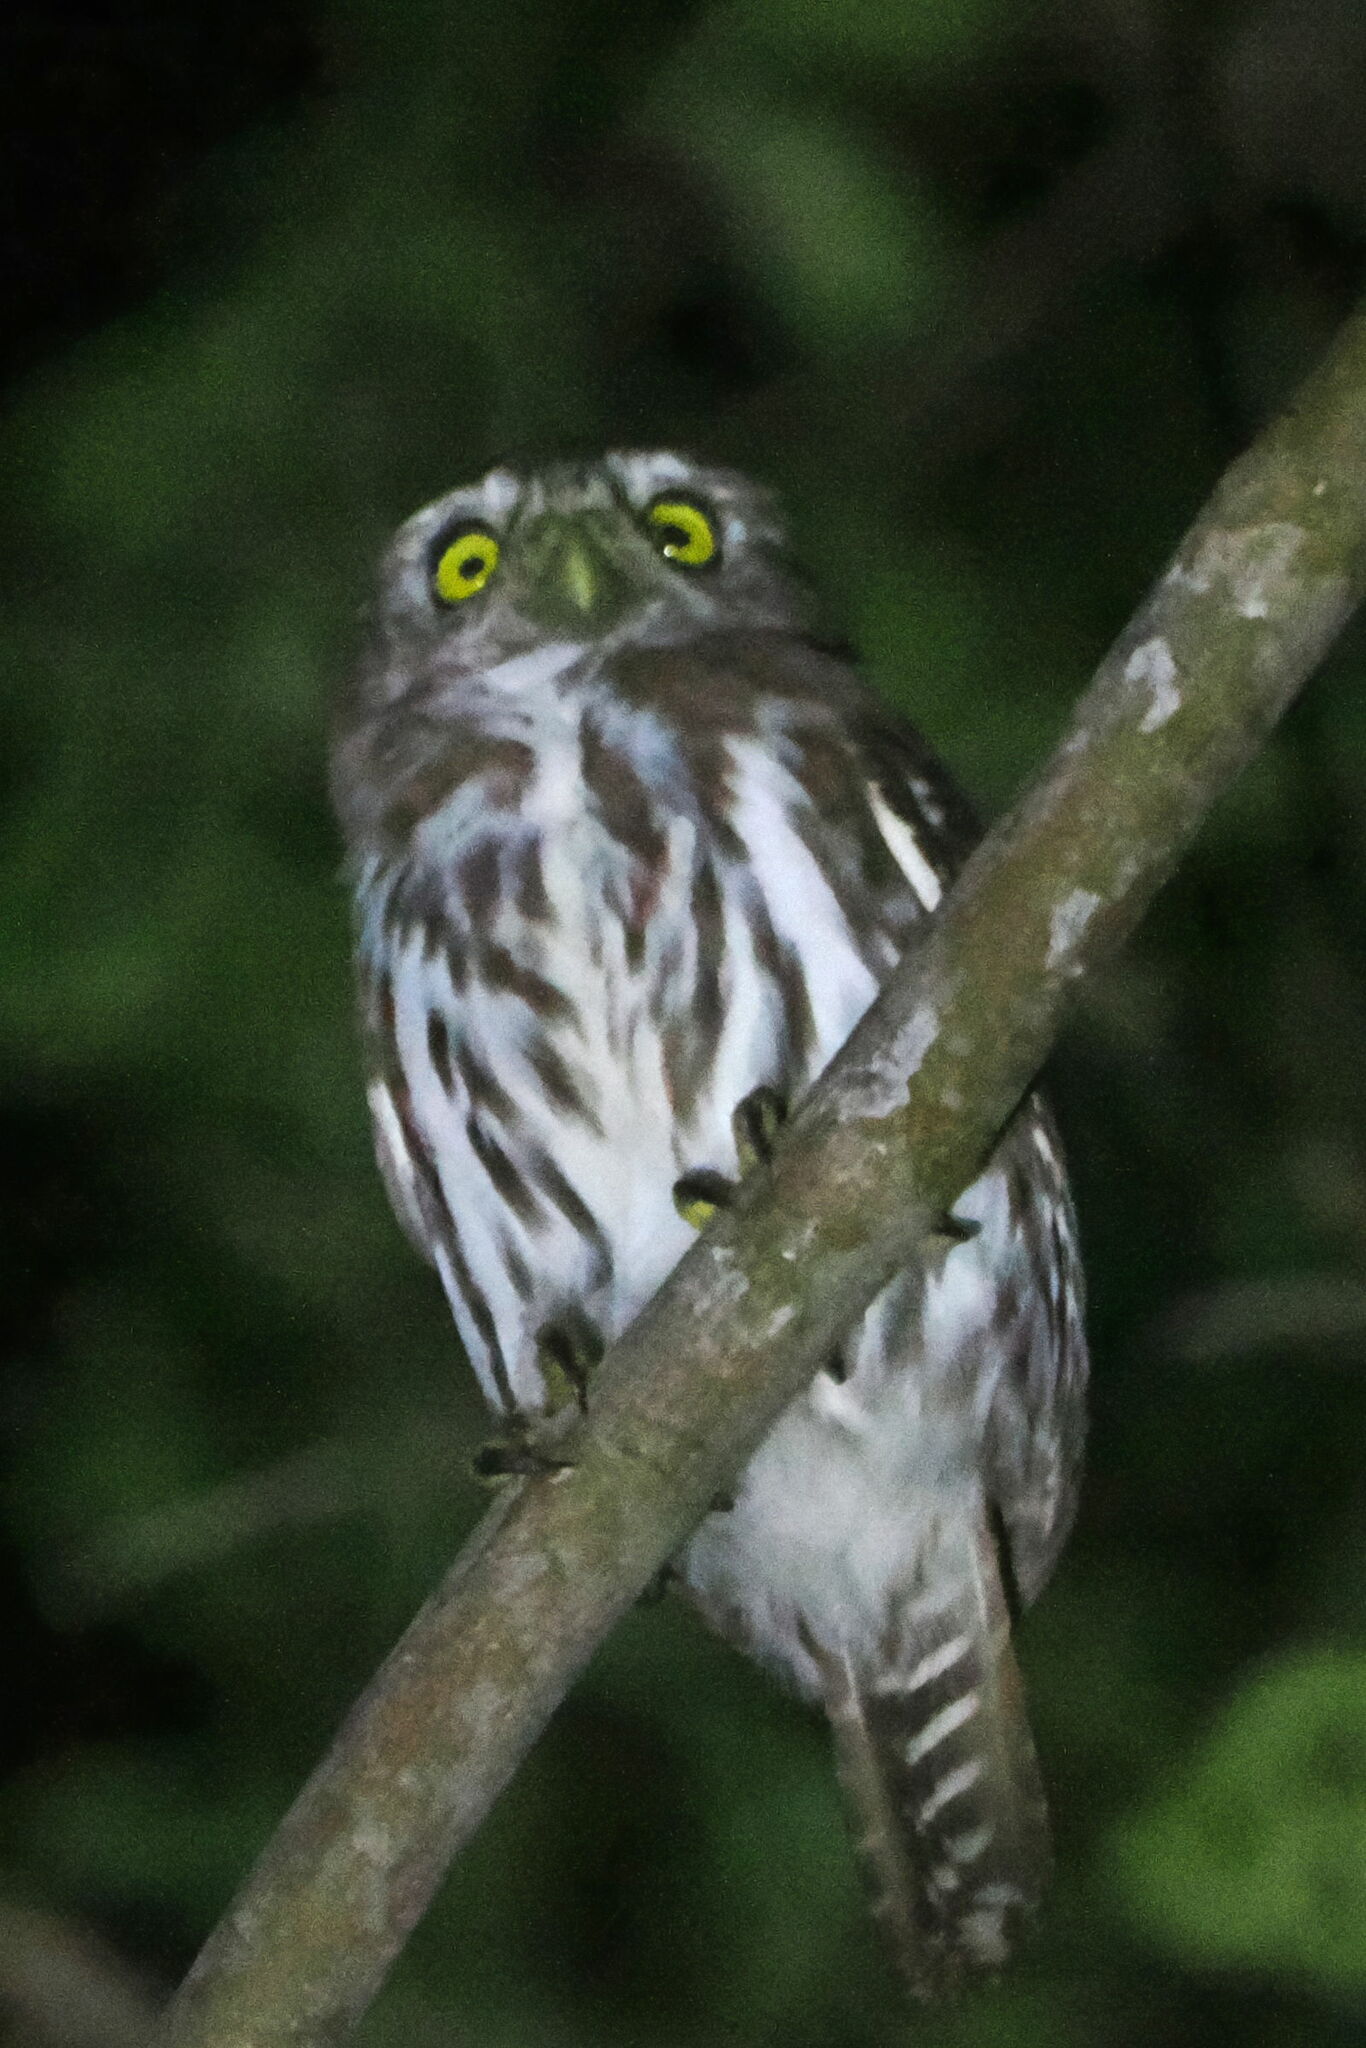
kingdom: Animalia
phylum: Chordata
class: Aves
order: Strigiformes
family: Strigidae
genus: Glaucidium
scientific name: Glaucidium brasilianum
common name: Ferruginous pygmy-owl
